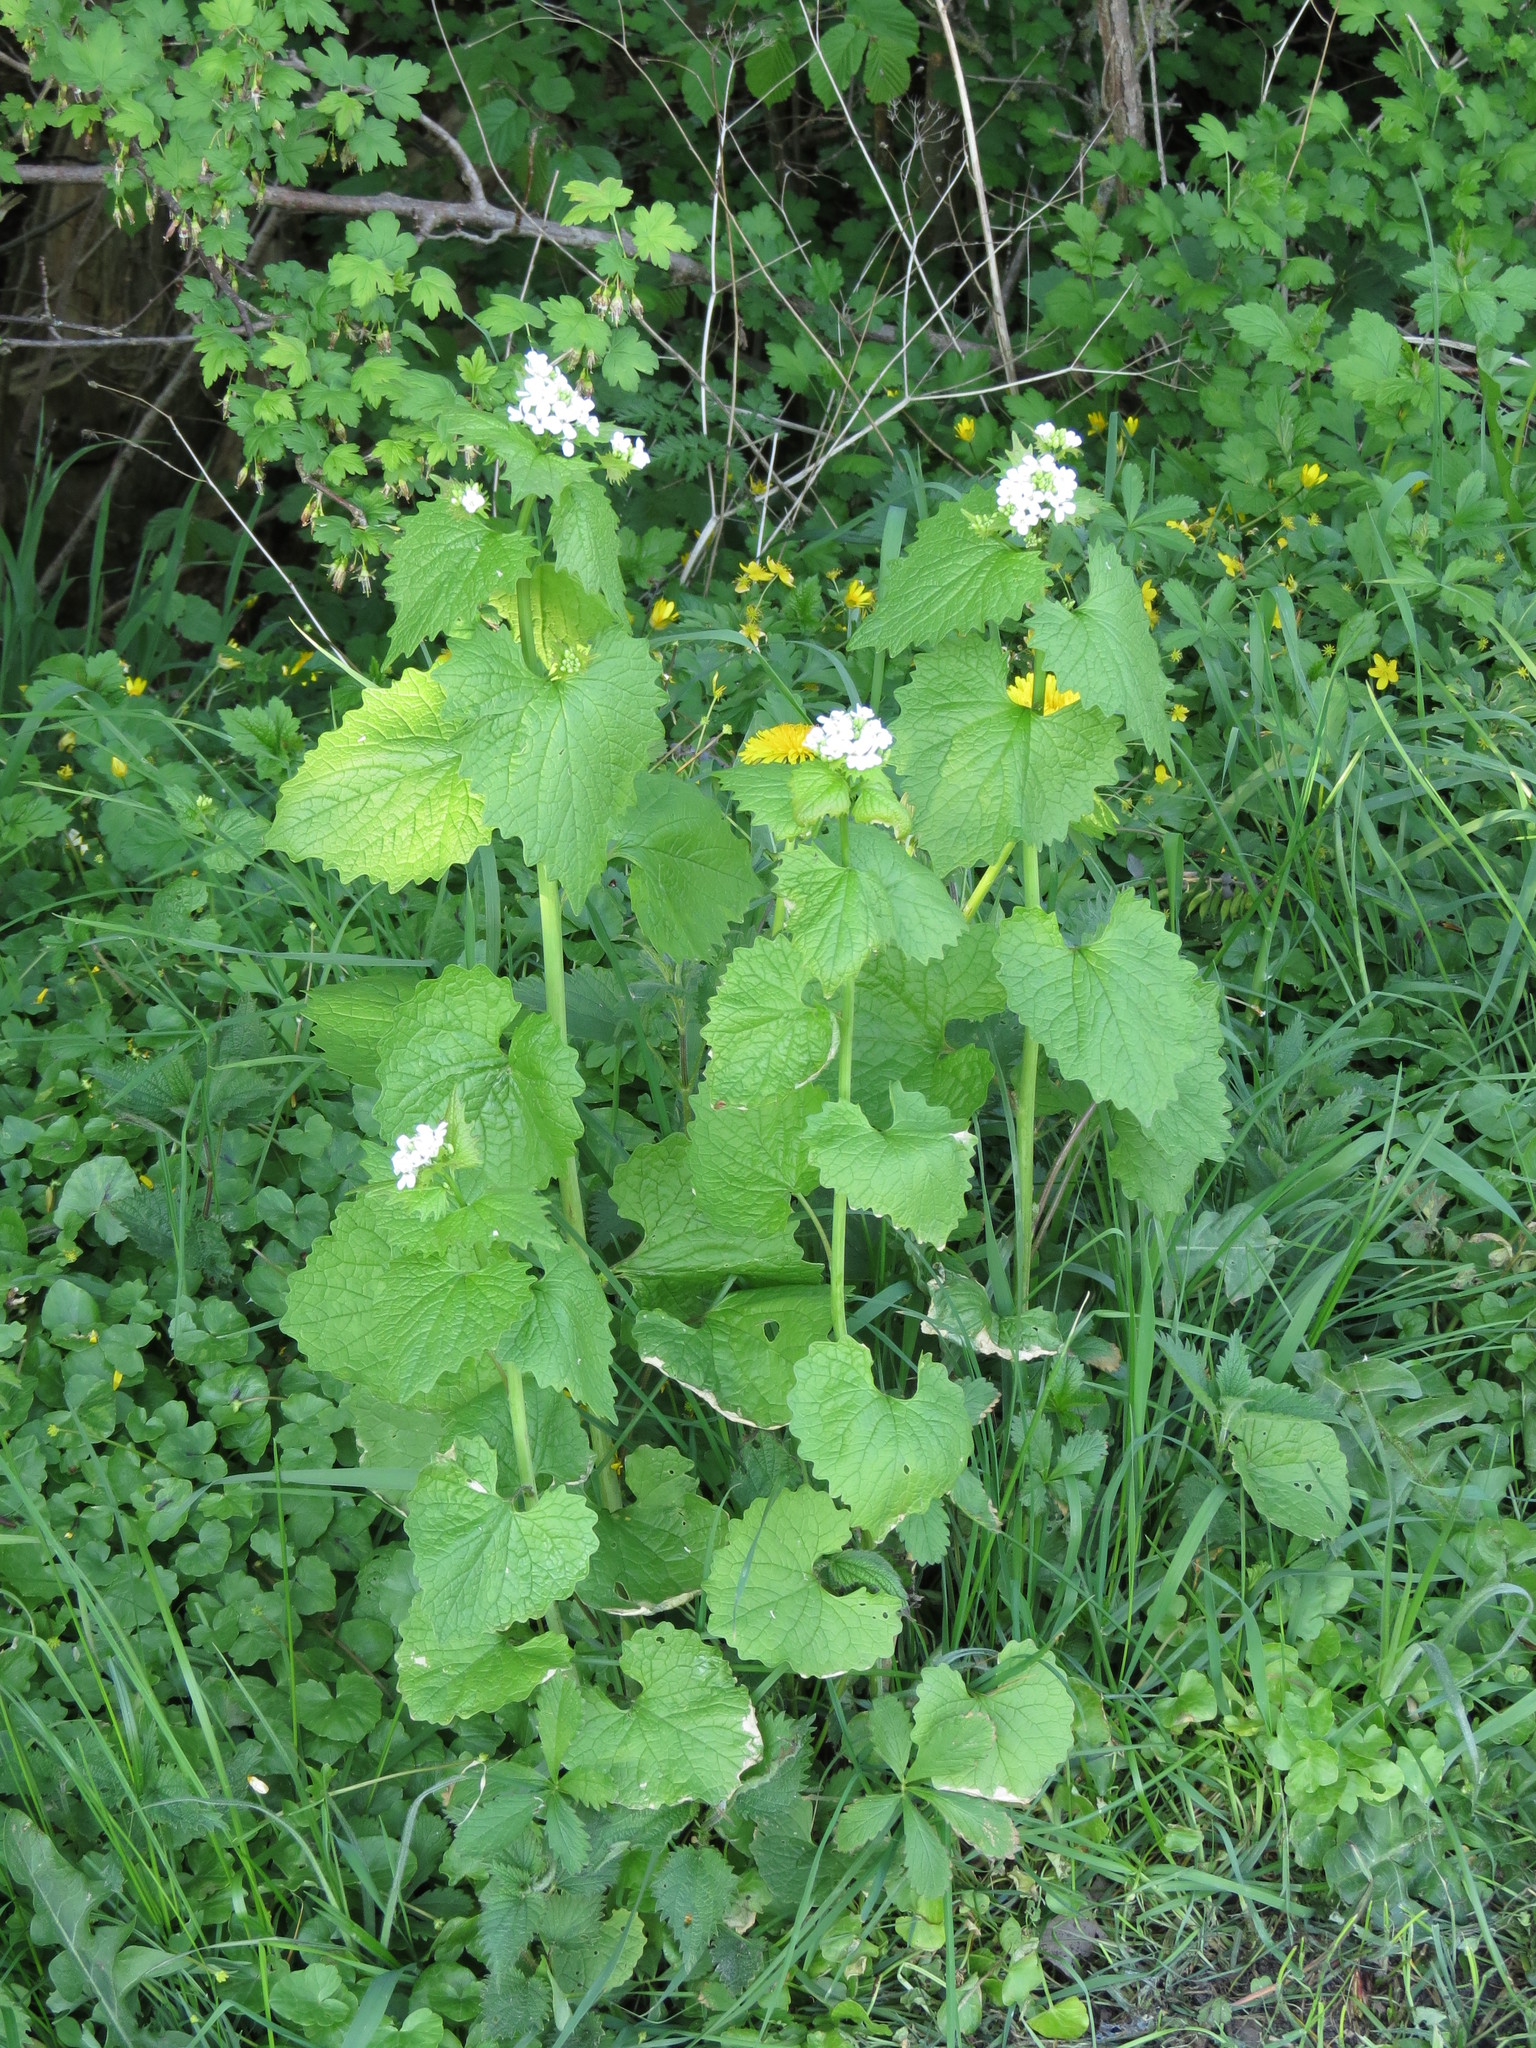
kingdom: Plantae
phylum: Tracheophyta
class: Magnoliopsida
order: Brassicales
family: Brassicaceae
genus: Alliaria
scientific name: Alliaria petiolata
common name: Garlic mustard
